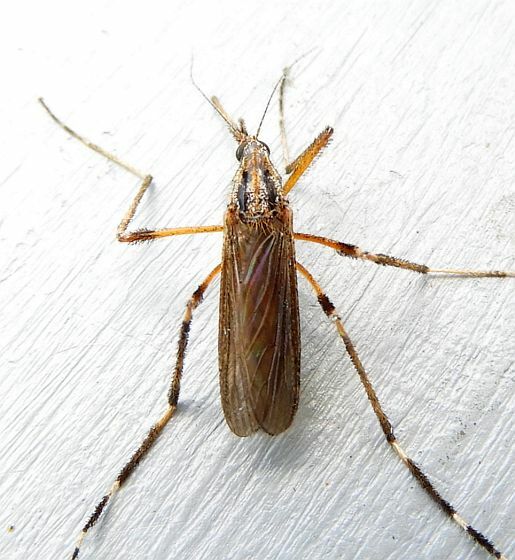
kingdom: Animalia
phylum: Arthropoda
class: Insecta
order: Diptera
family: Culicidae
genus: Psorophora
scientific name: Psorophora ciliata
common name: Gallinipper
